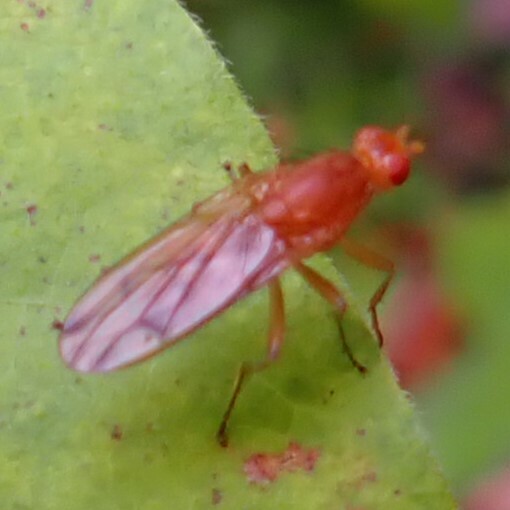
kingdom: Animalia
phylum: Arthropoda
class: Insecta
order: Diptera
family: Heleomyzidae
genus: Amoebaleria
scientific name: Amoebaleria helvola
